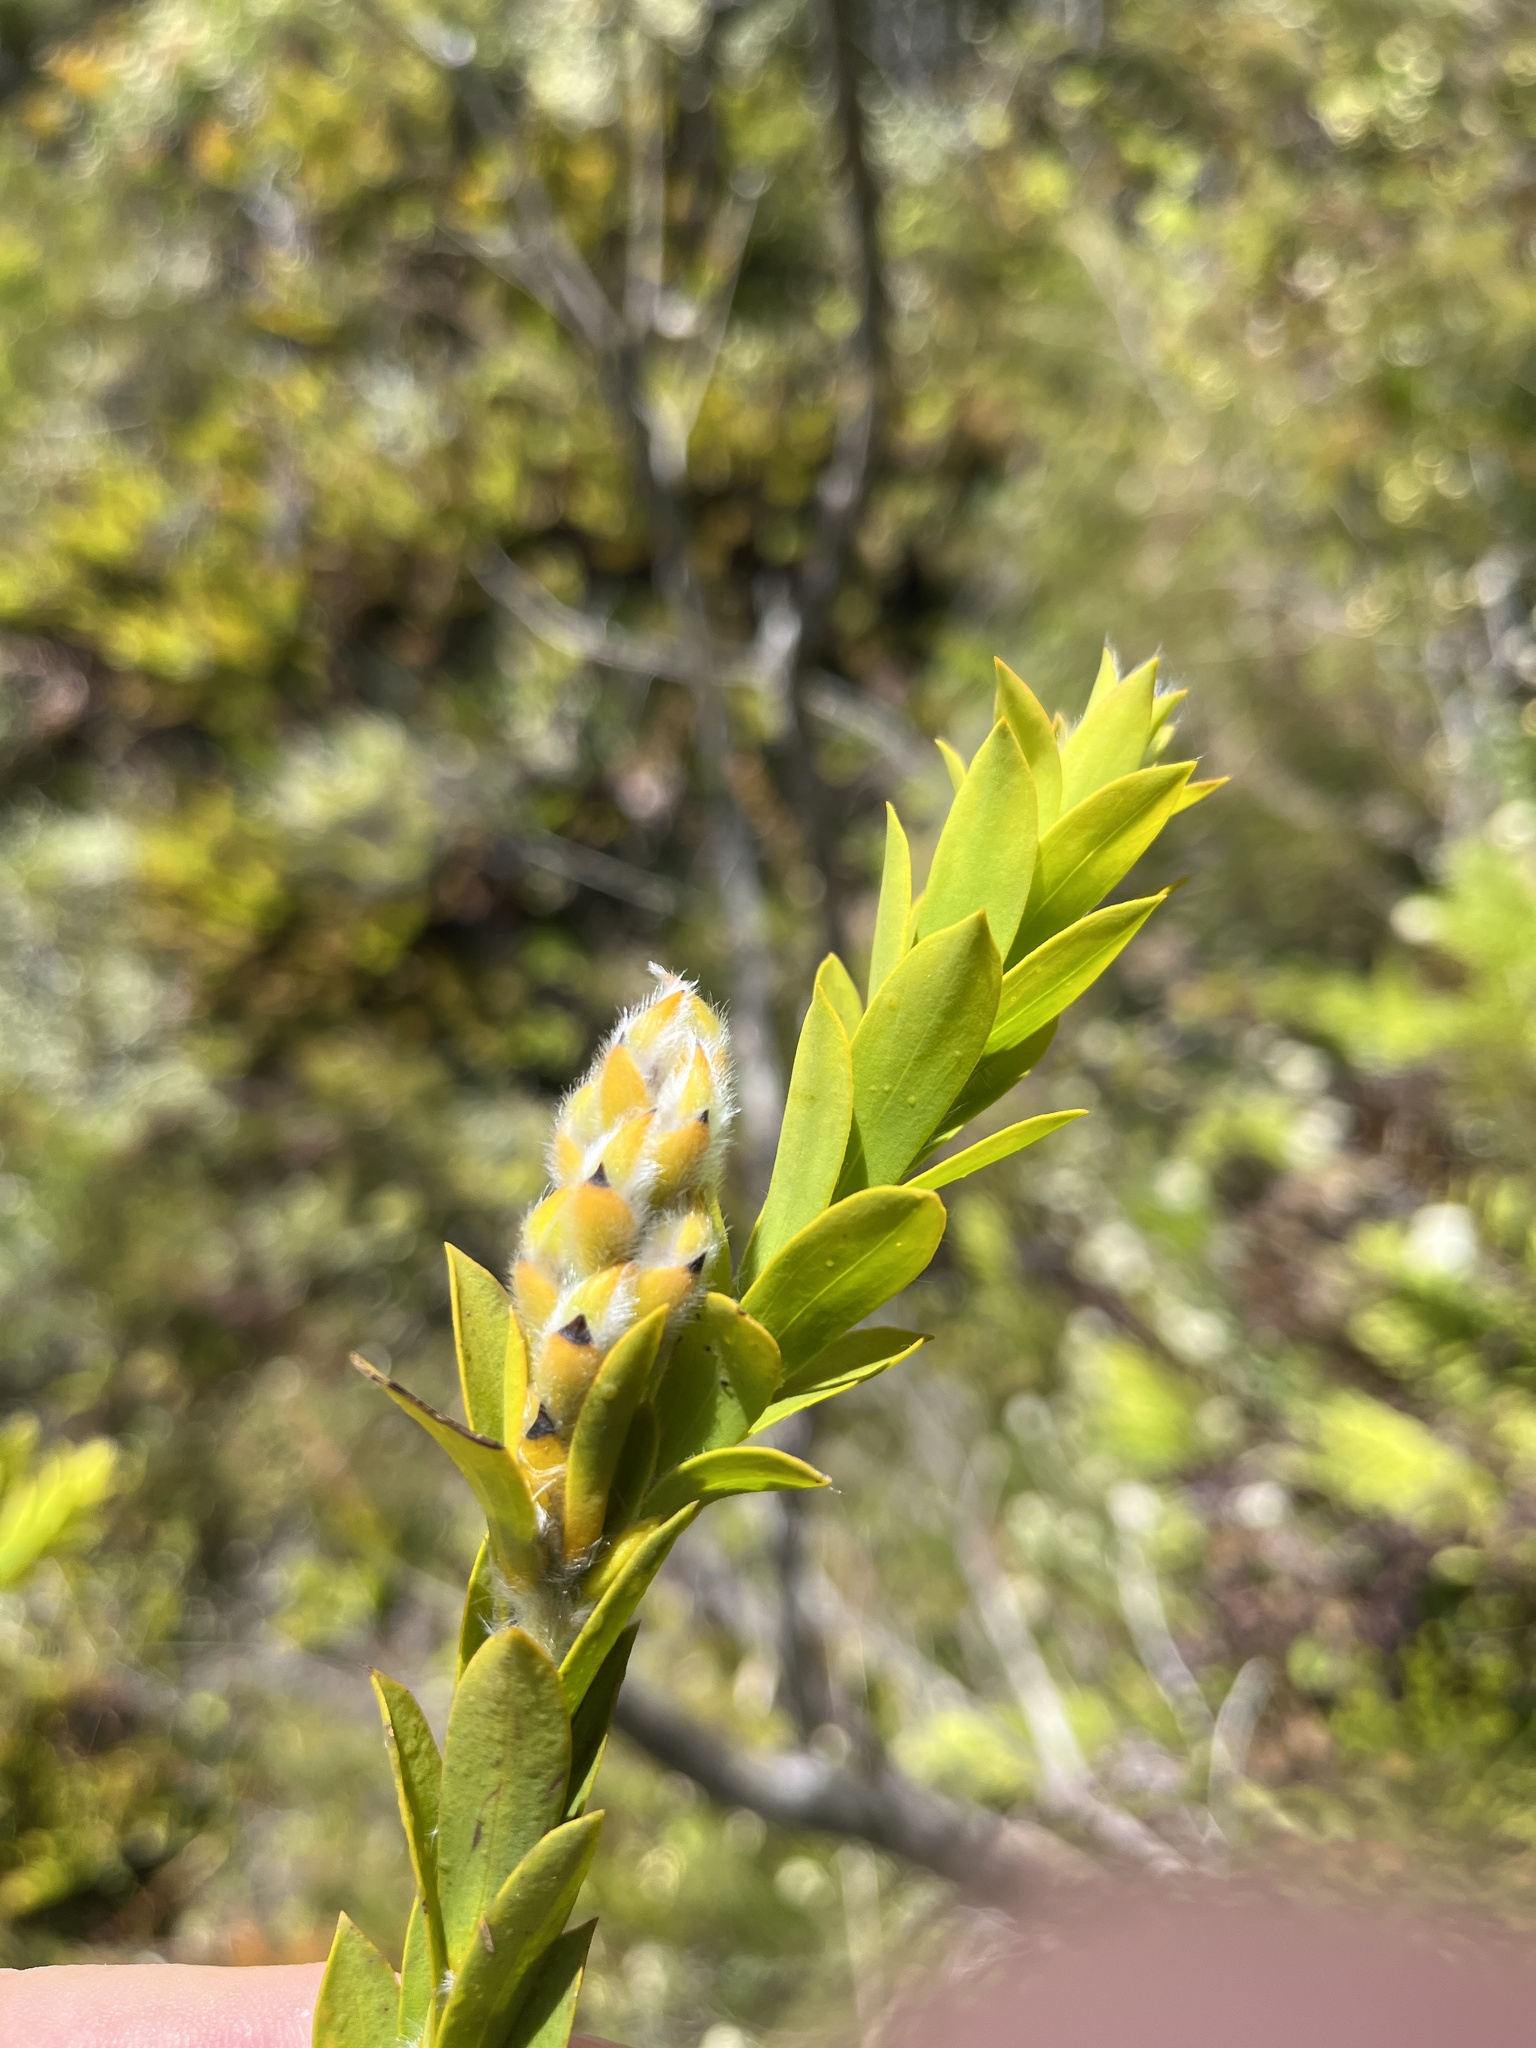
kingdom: Plantae
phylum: Tracheophyta
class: Magnoliopsida
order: Fabales
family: Fabaceae
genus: Liparia
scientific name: Liparia hirsuta
